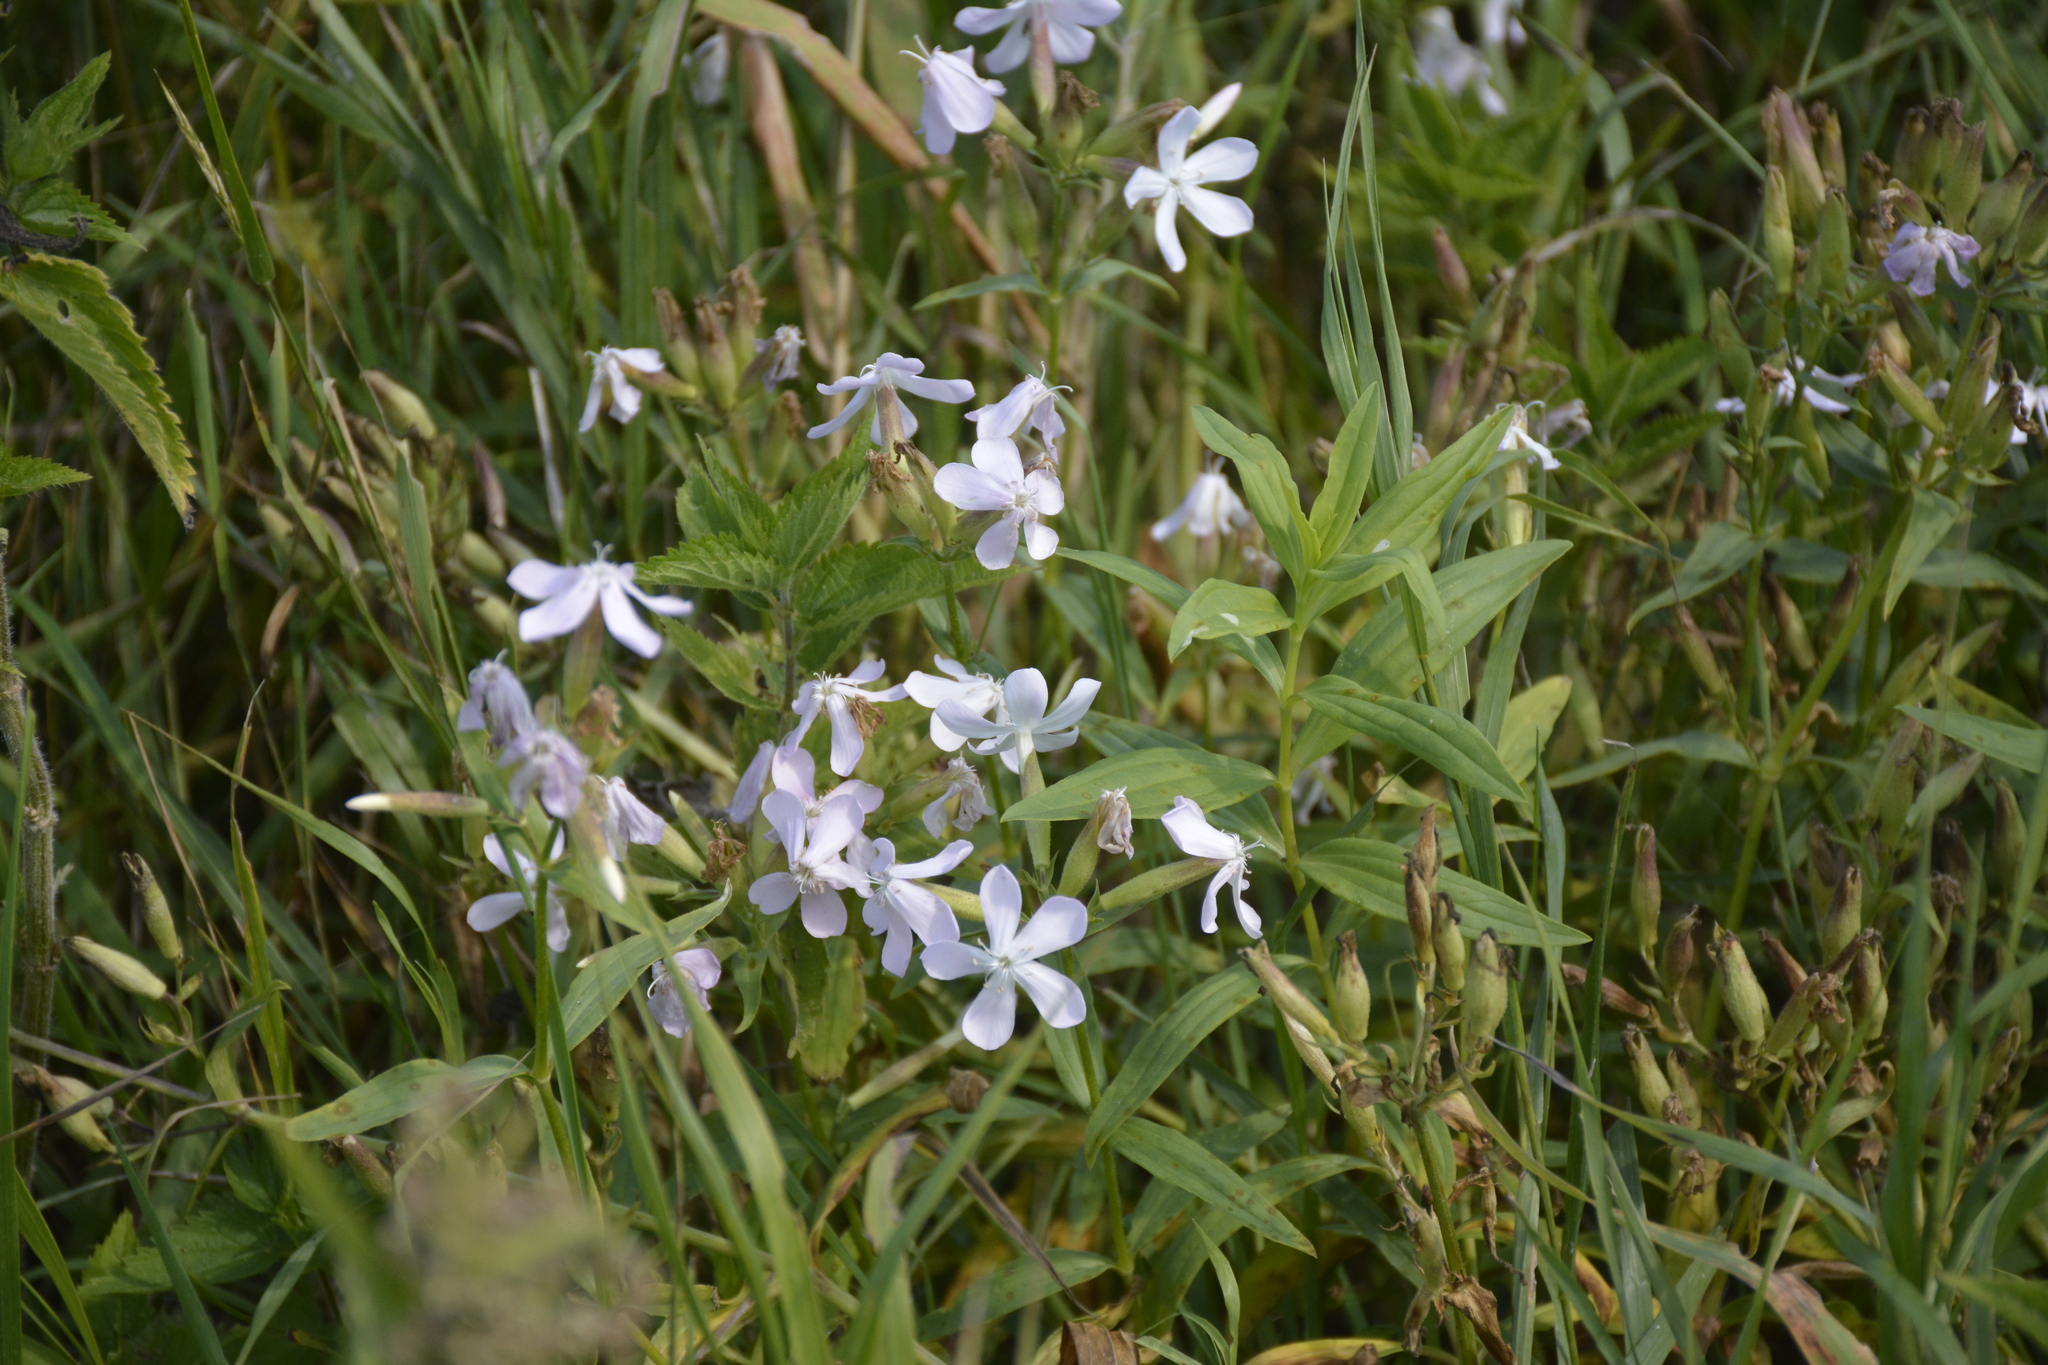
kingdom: Plantae
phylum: Tracheophyta
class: Magnoliopsida
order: Caryophyllales
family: Caryophyllaceae
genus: Saponaria
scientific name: Saponaria officinalis
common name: Soapwort
